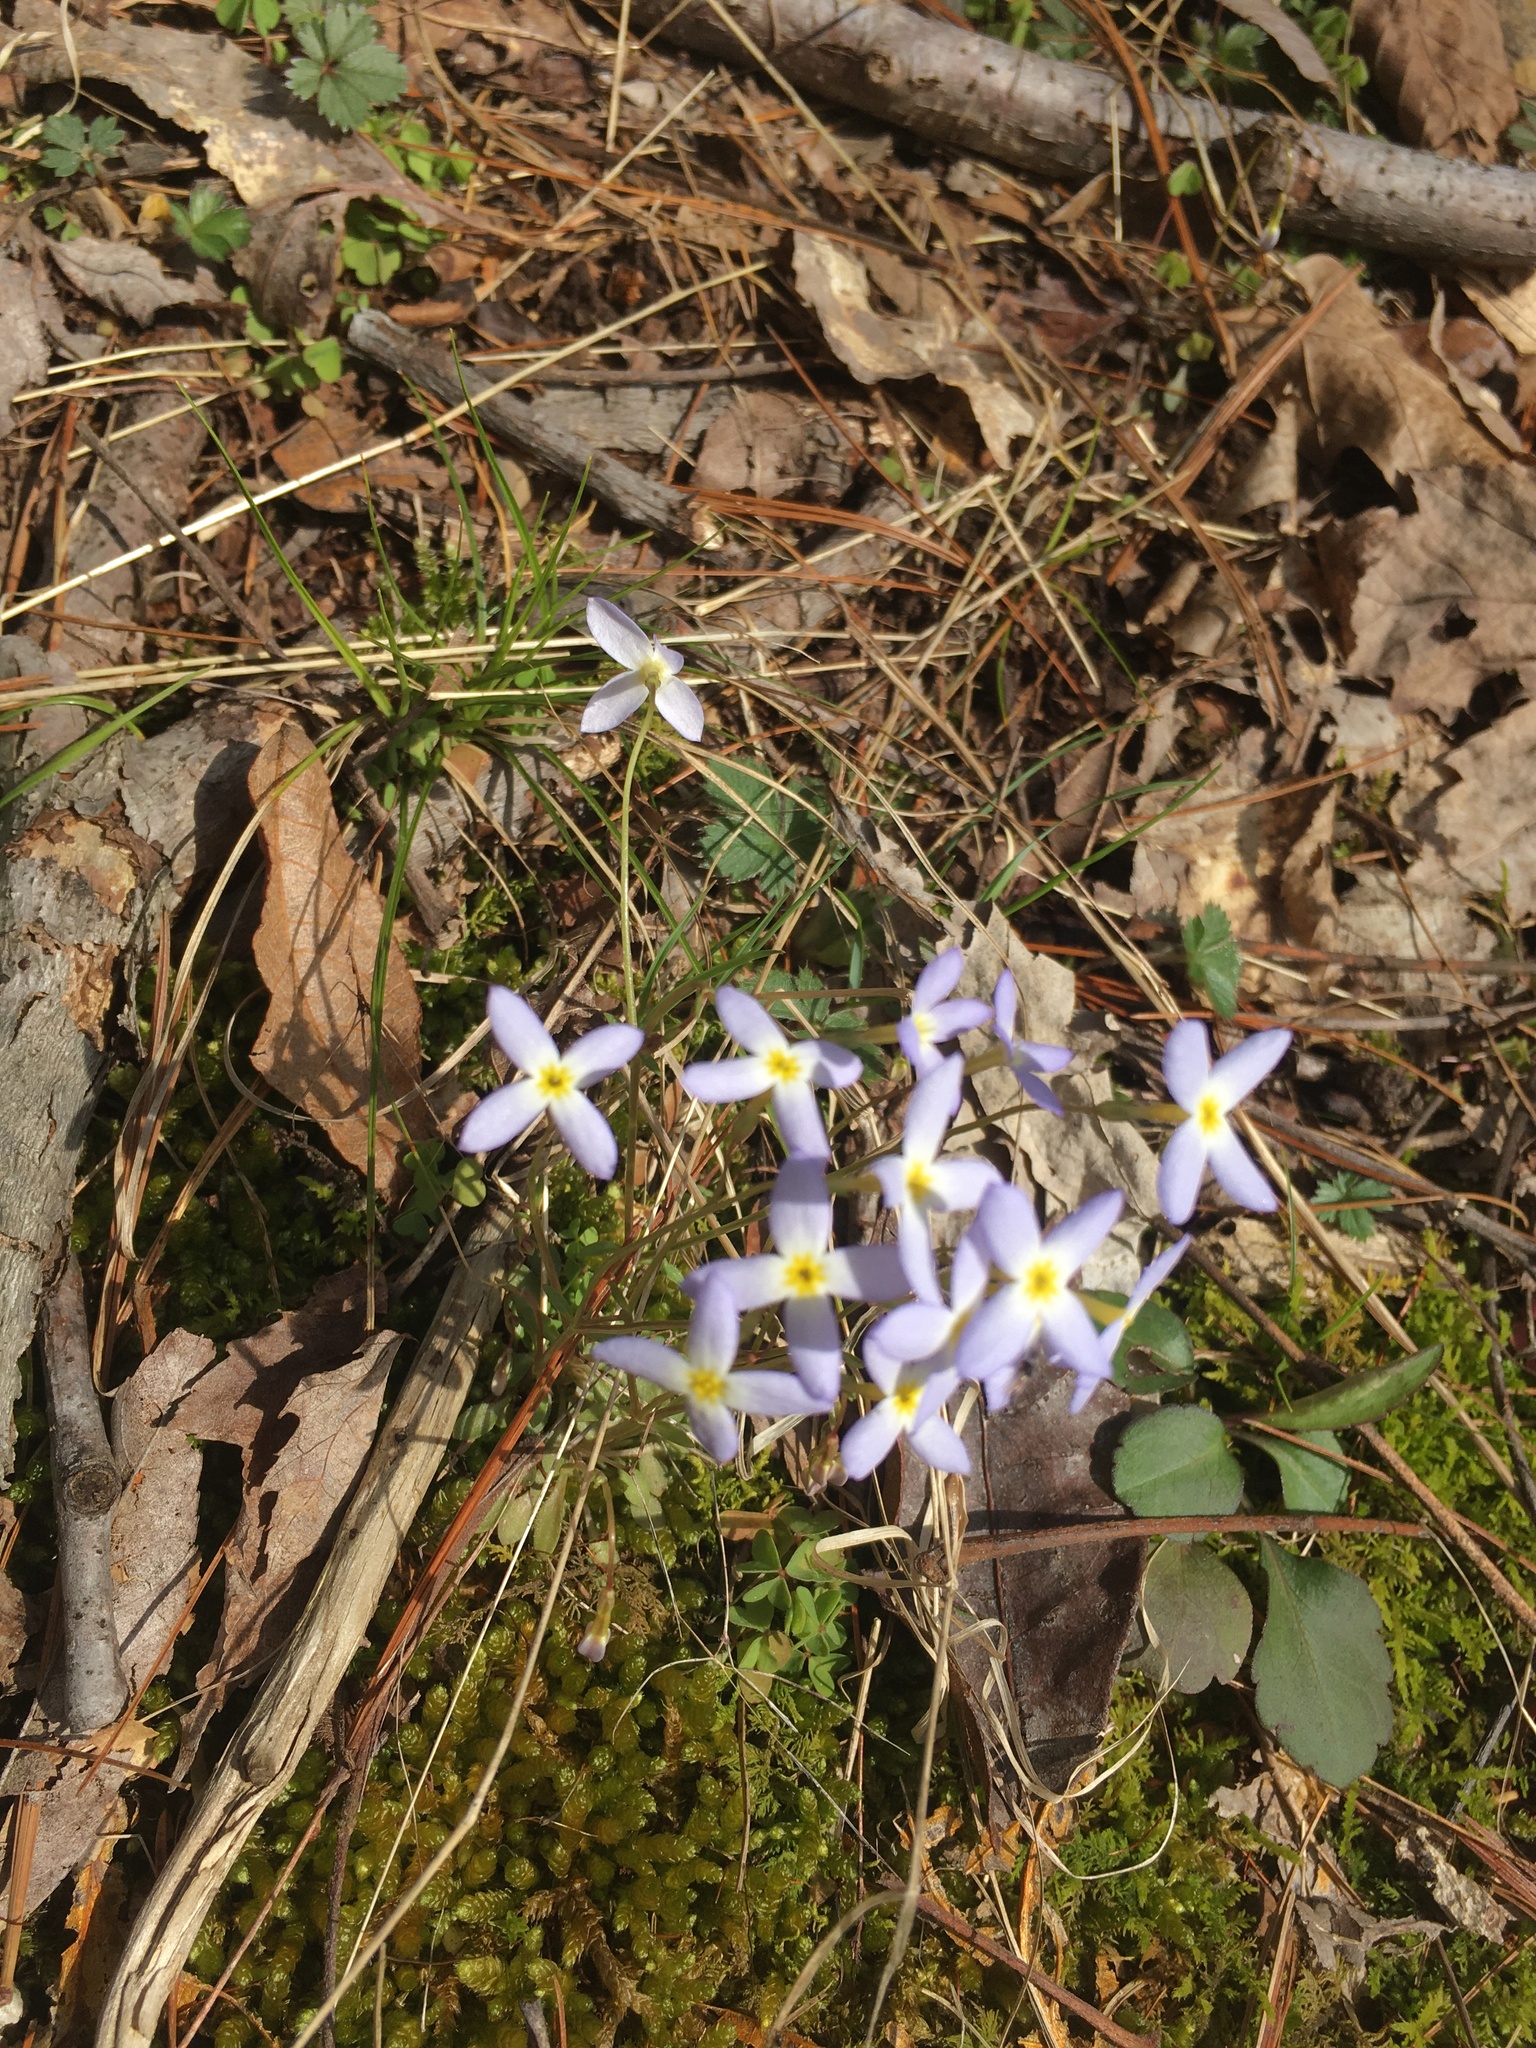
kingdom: Plantae
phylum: Tracheophyta
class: Magnoliopsida
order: Gentianales
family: Rubiaceae
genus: Houstonia
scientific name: Houstonia caerulea
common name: Bluets
